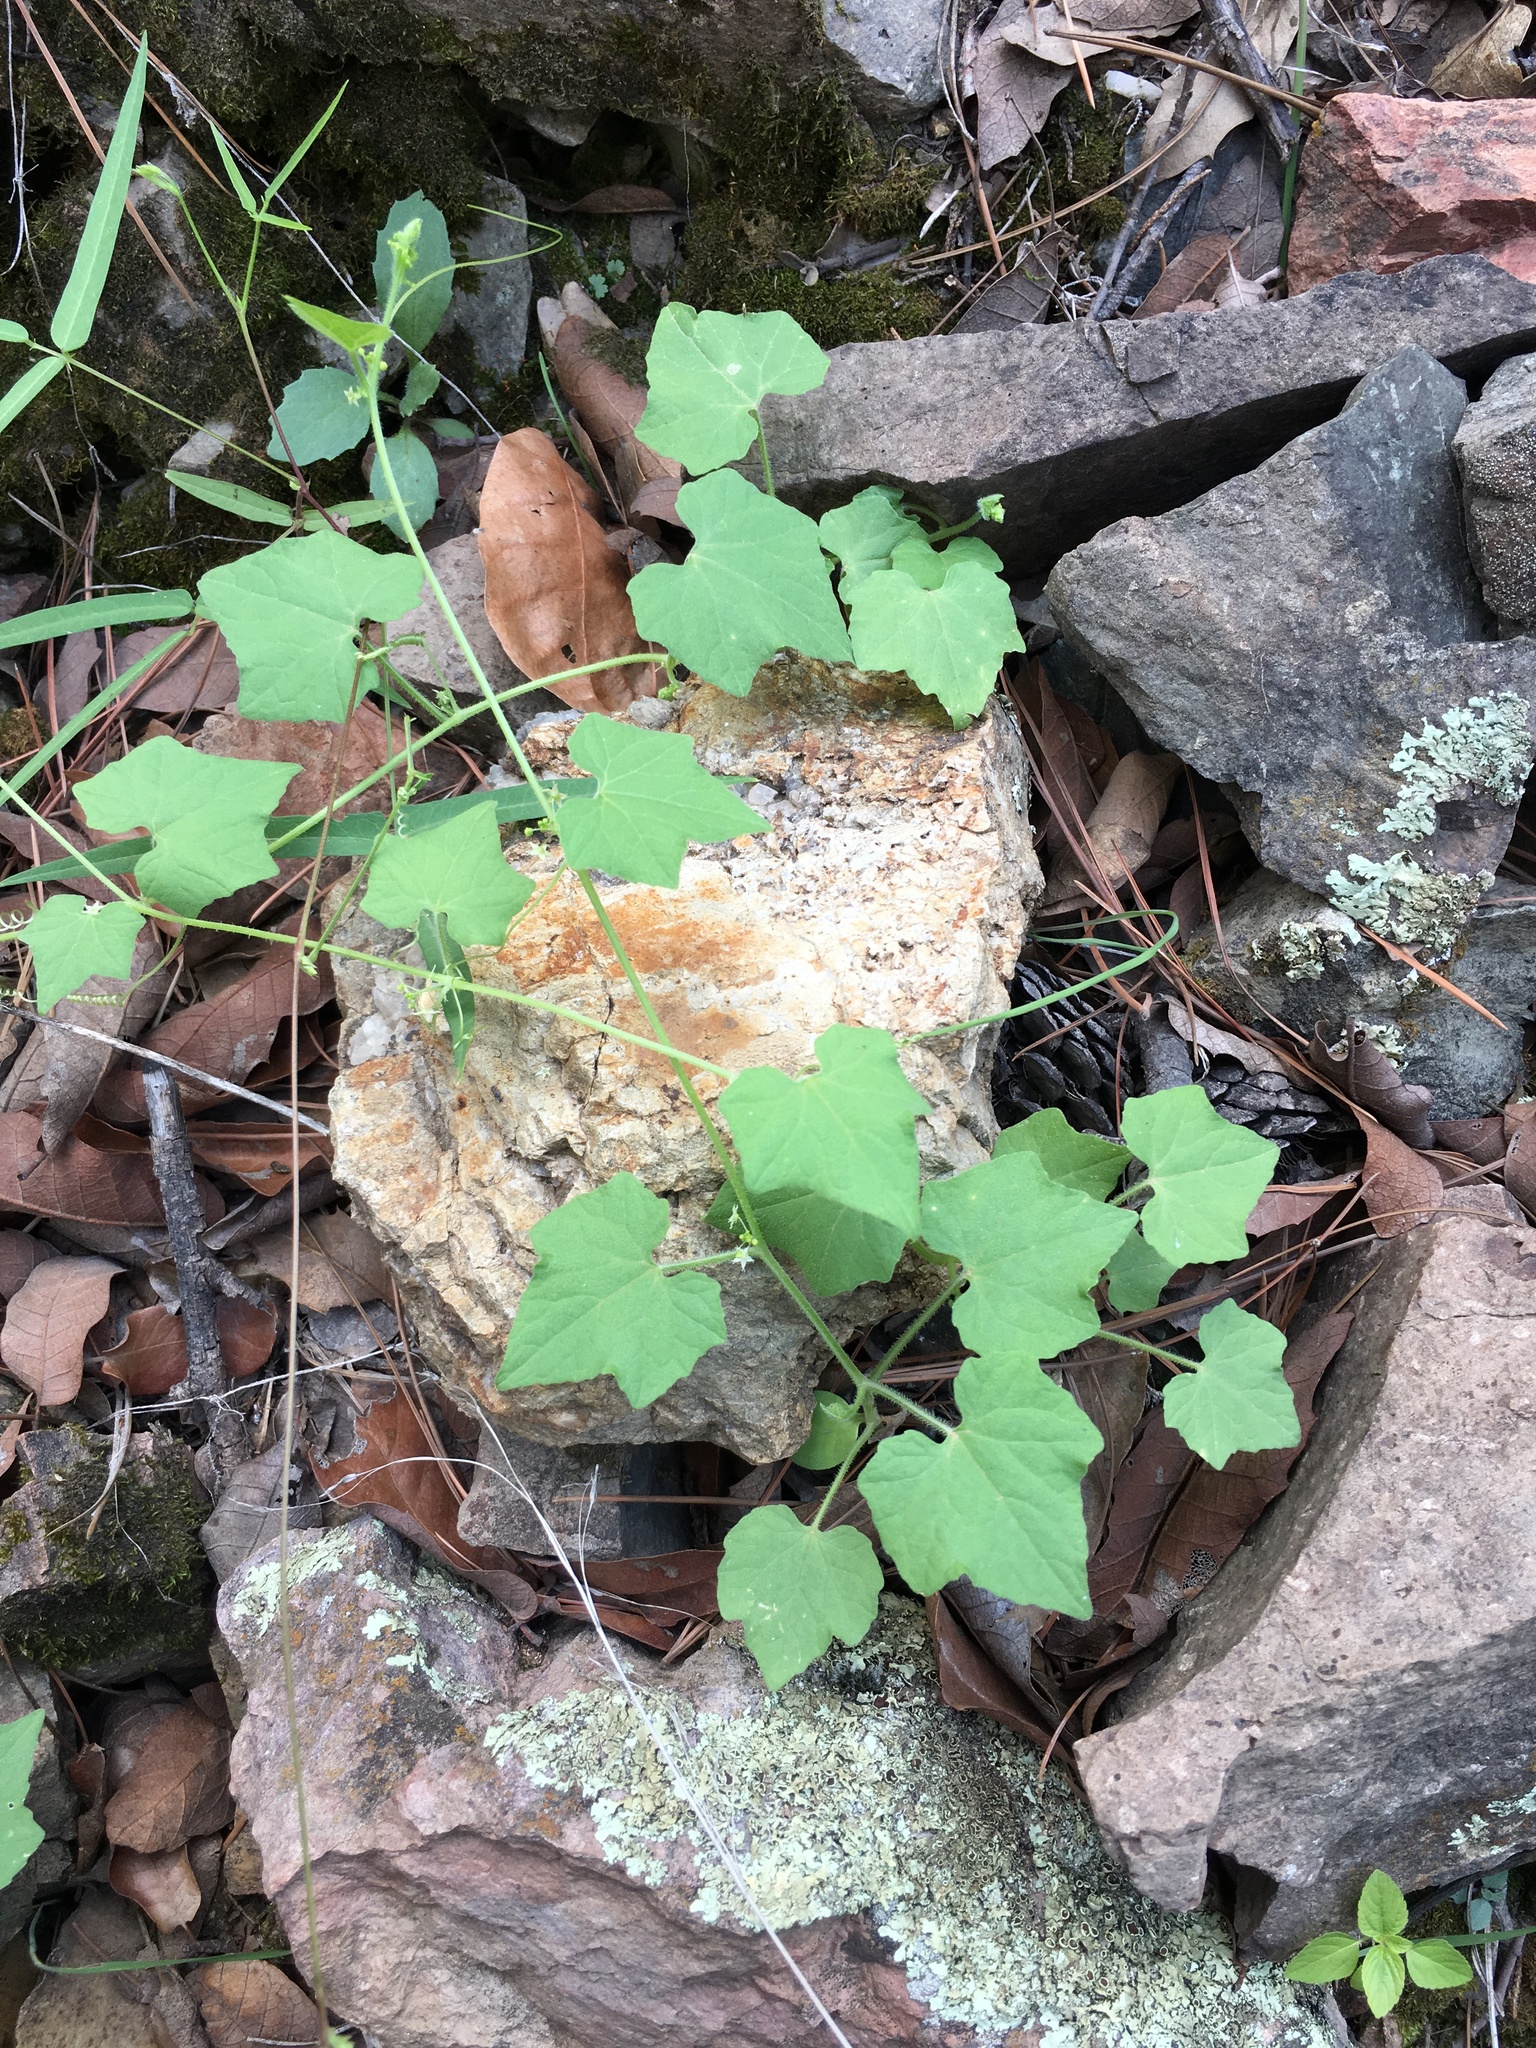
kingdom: Plantae
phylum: Tracheophyta
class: Magnoliopsida
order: Cucurbitales
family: Cucurbitaceae
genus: Sicyosperma
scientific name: Sicyosperma gracile
